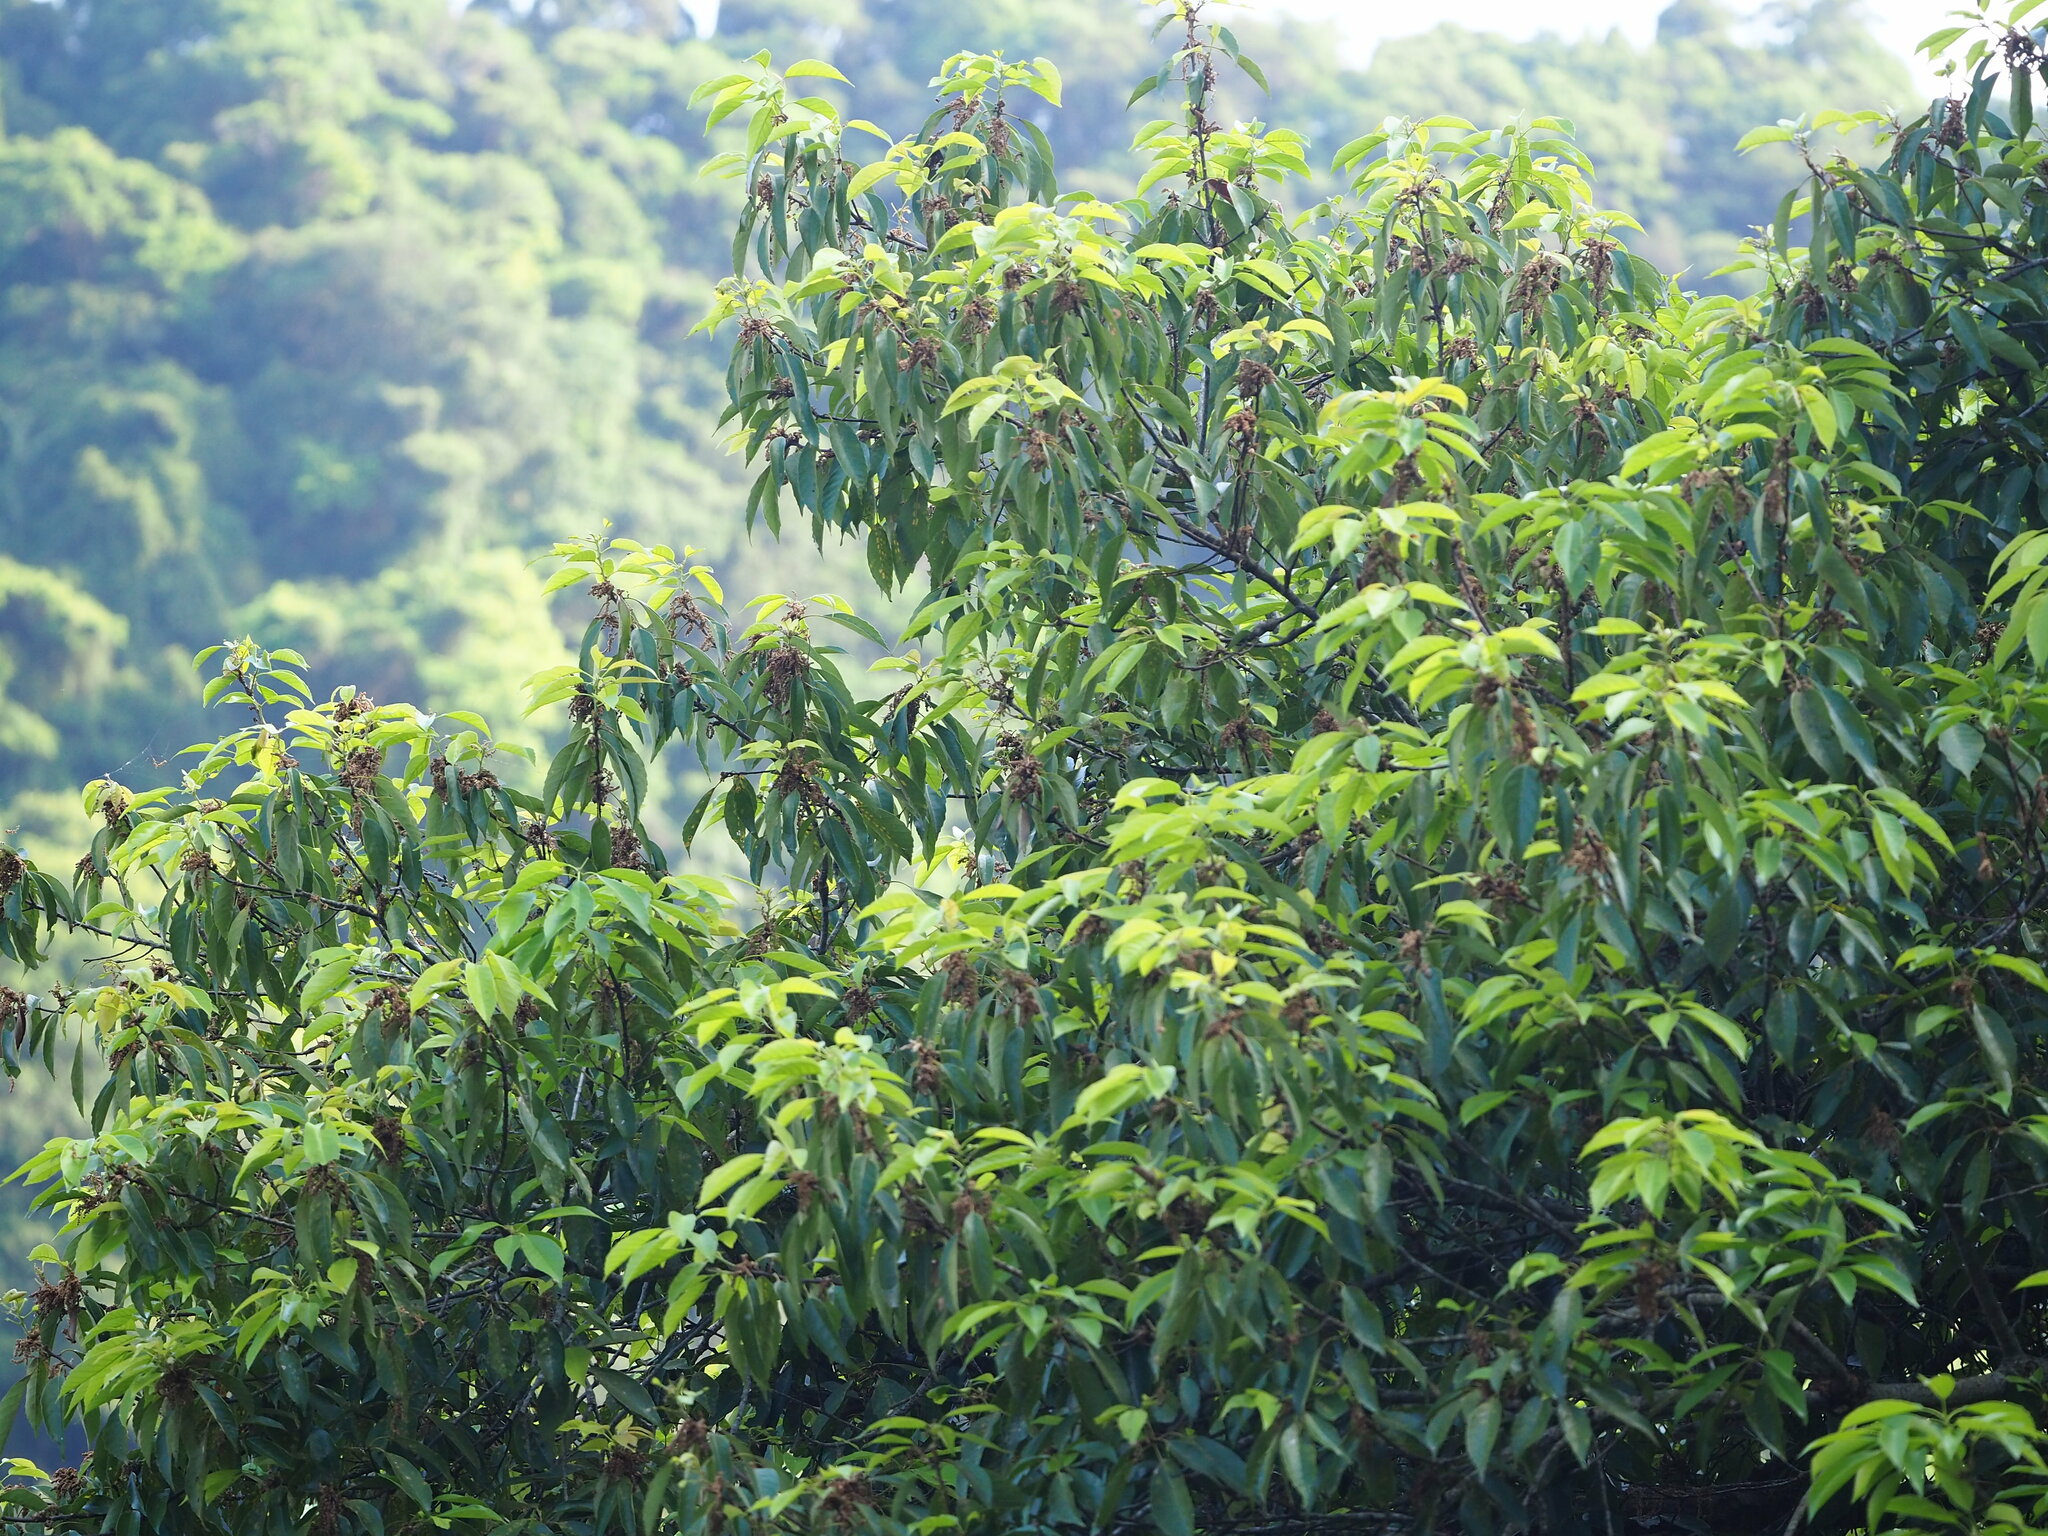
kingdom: Plantae
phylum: Tracheophyta
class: Magnoliopsida
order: Fagales
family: Fagaceae
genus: Quercus
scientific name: Quercus glauca
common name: Ring-cup oak
